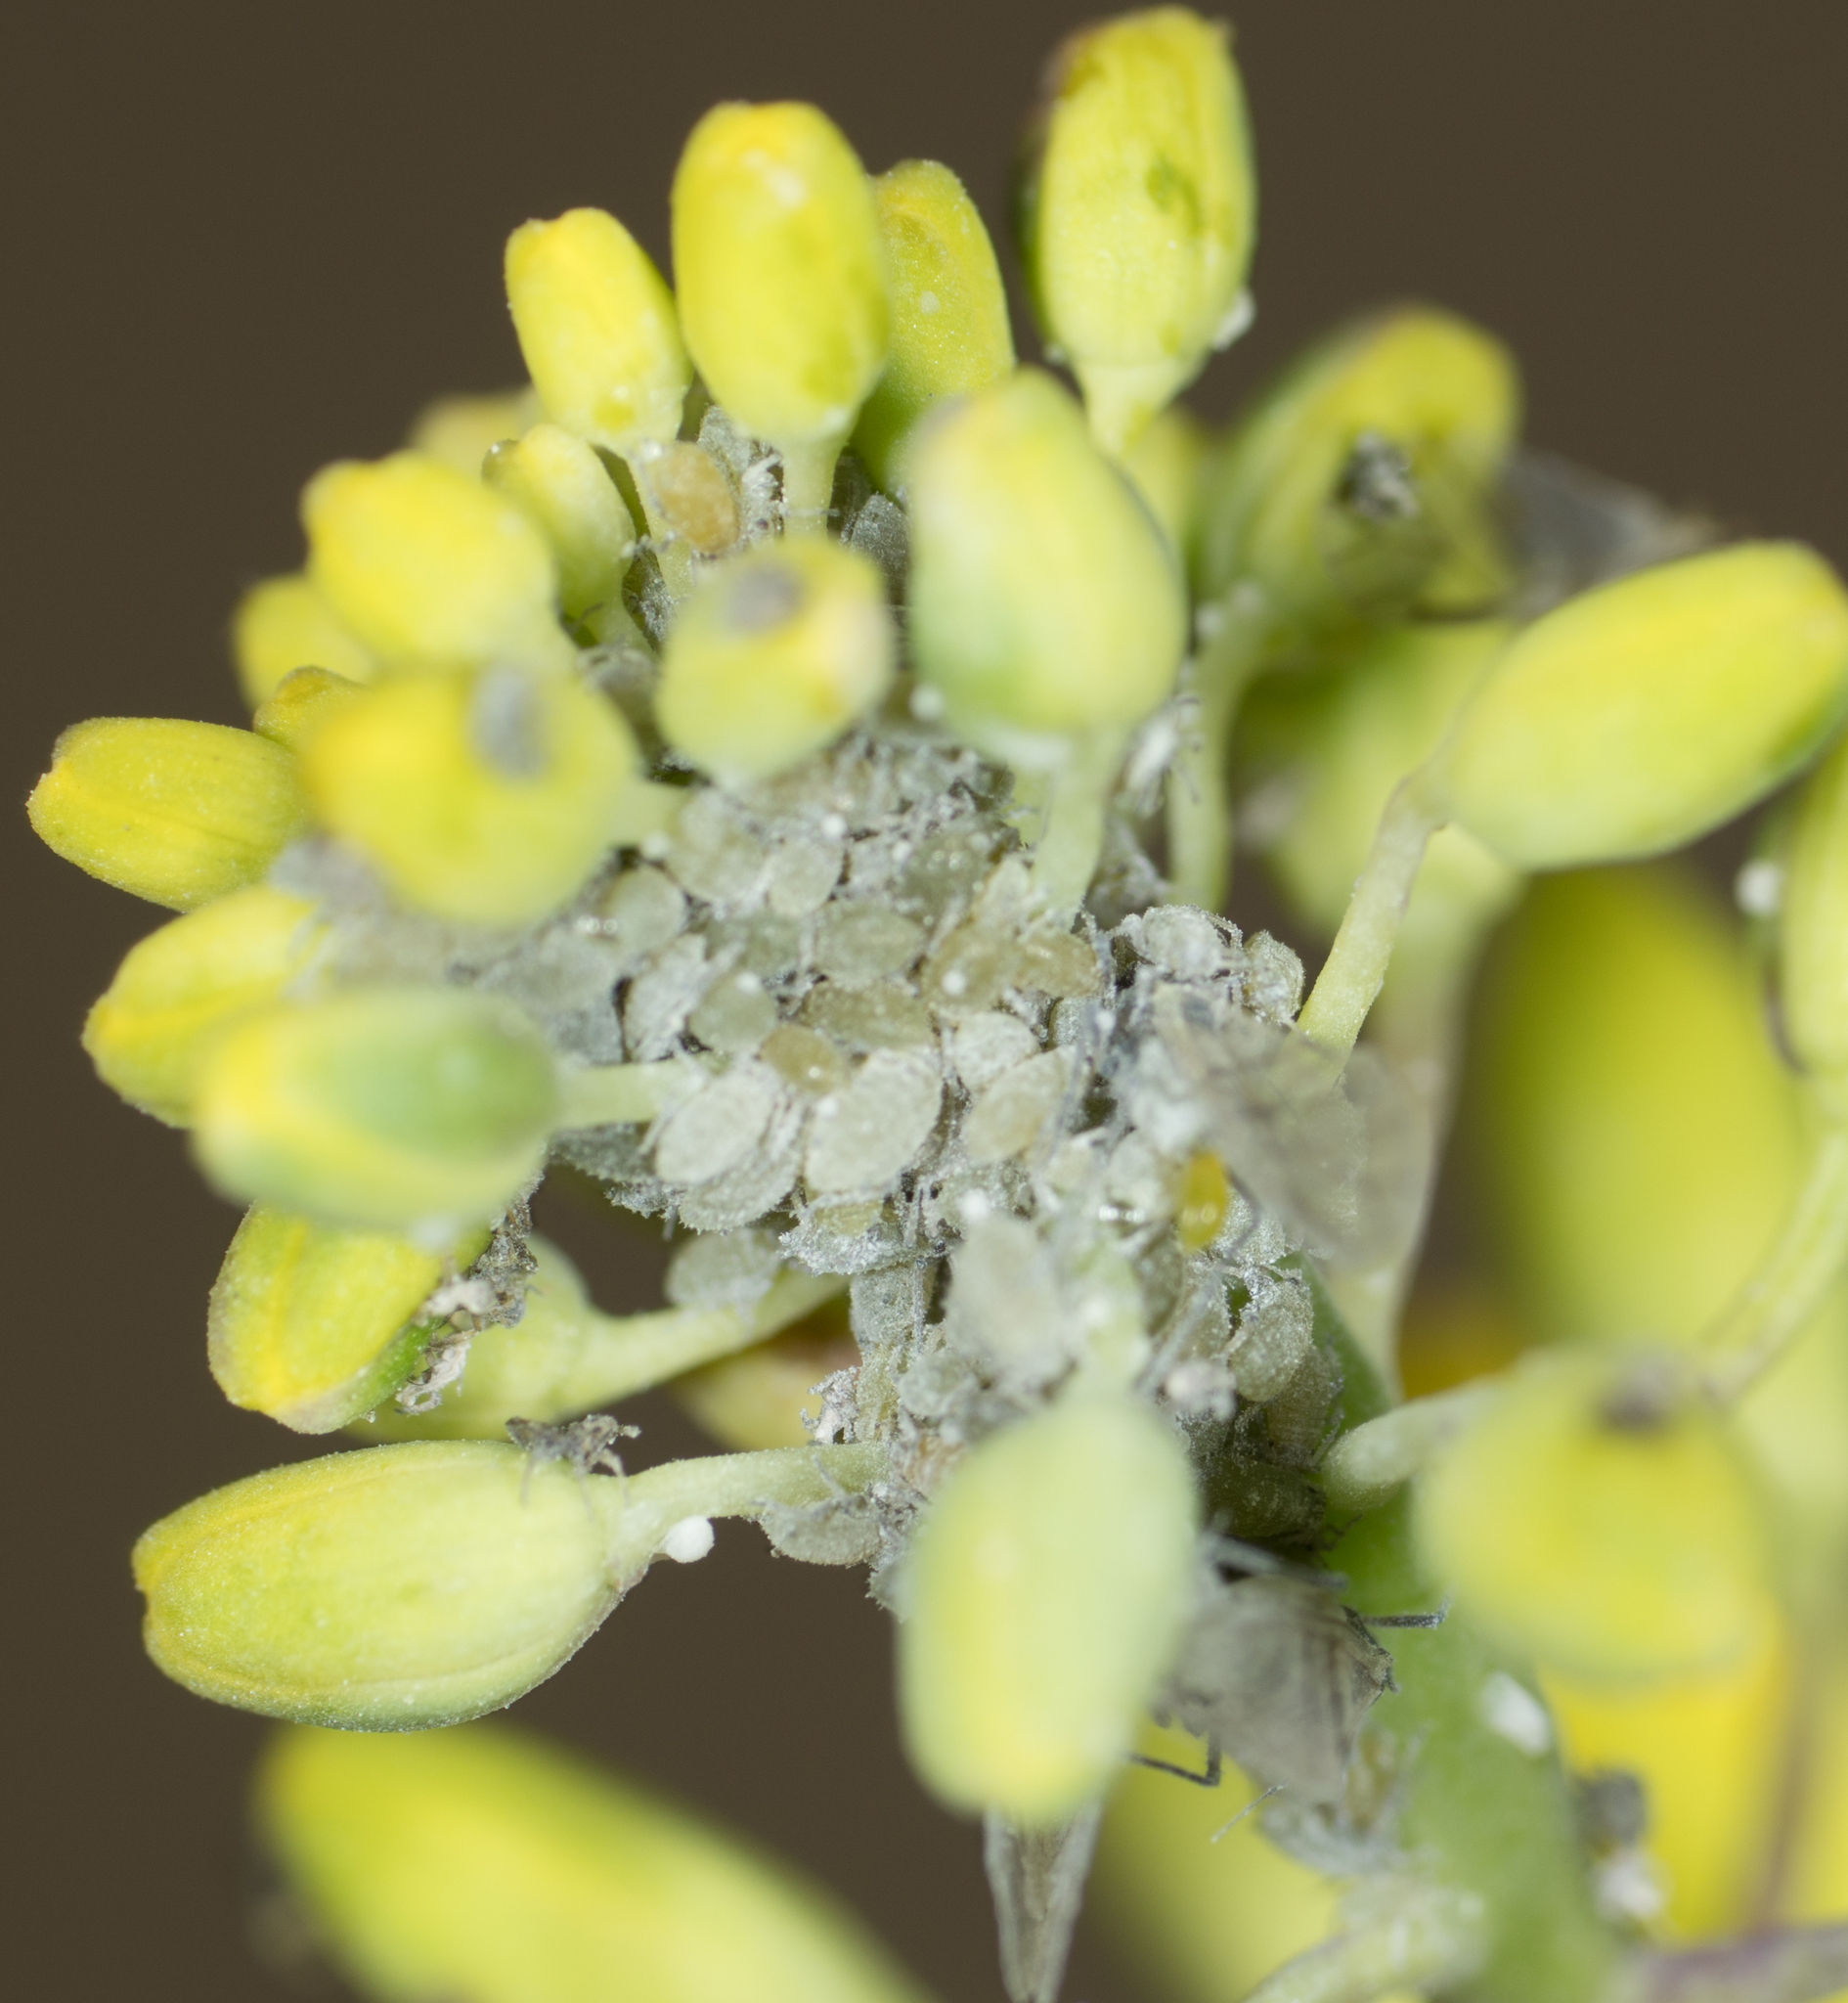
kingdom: Animalia
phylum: Arthropoda
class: Insecta
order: Hemiptera
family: Aphididae
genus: Brevicoryne
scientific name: Brevicoryne brassicae
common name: Cabbage aphid
